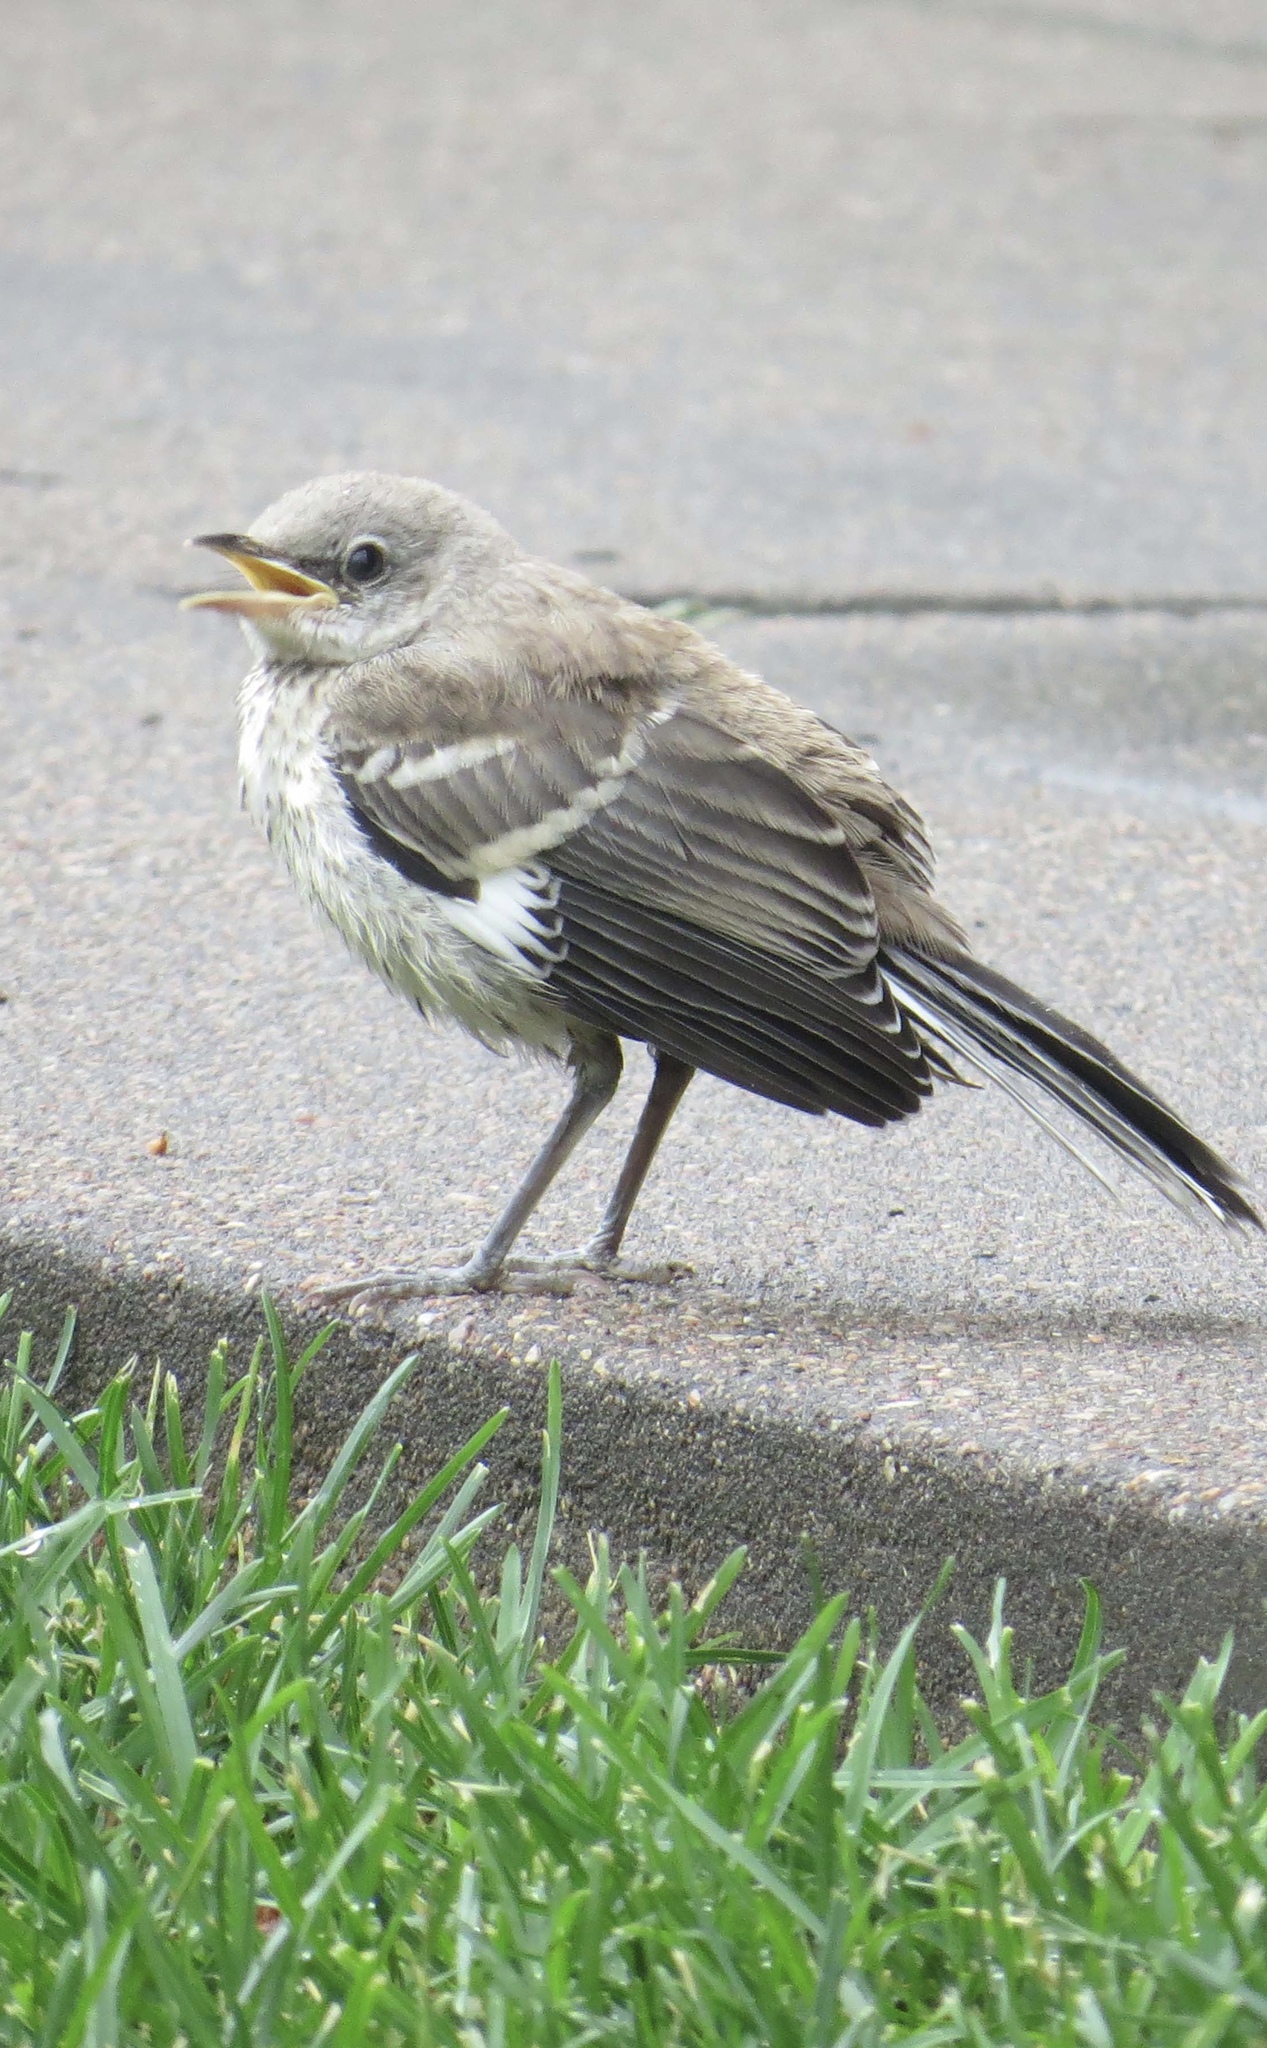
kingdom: Animalia
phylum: Chordata
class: Aves
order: Passeriformes
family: Mimidae
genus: Mimus
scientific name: Mimus polyglottos
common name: Northern mockingbird
